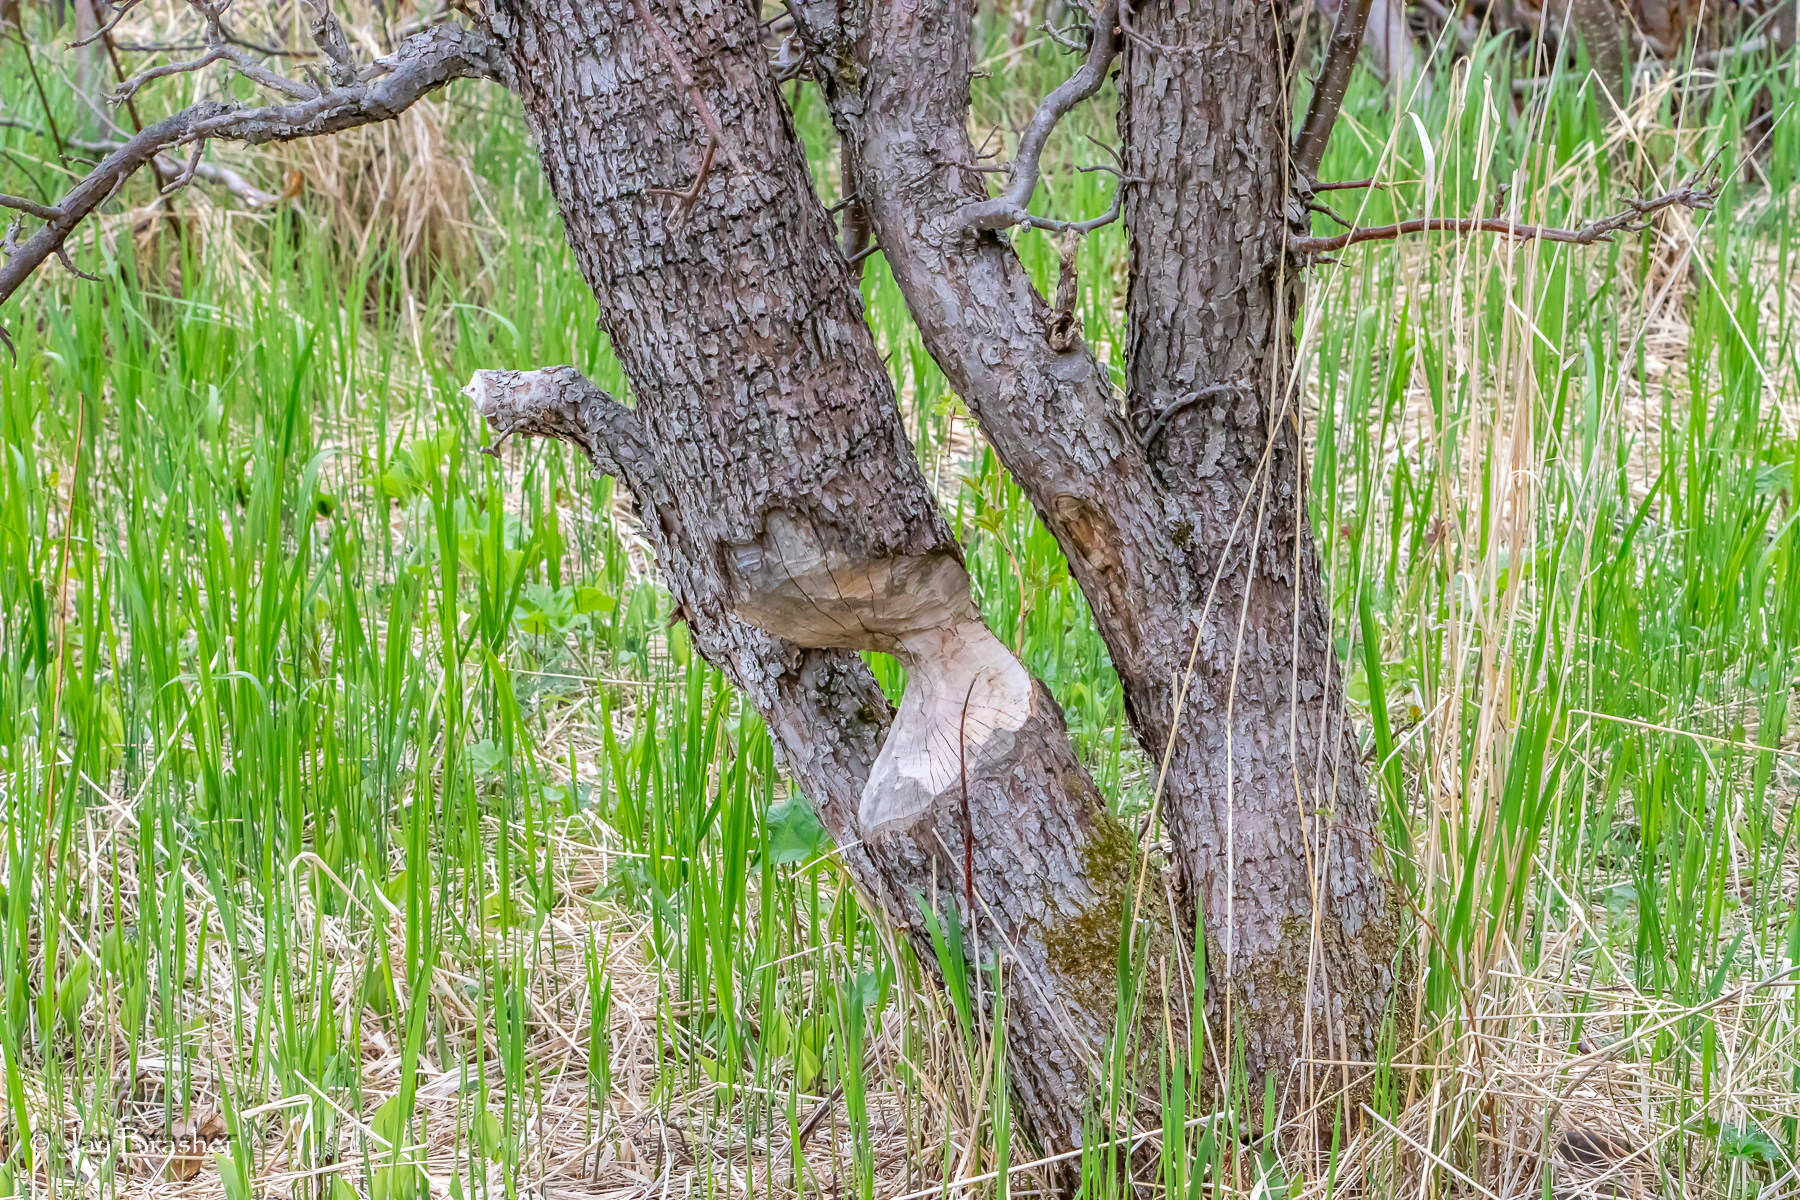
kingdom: Animalia
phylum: Chordata
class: Mammalia
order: Rodentia
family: Castoridae
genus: Castor
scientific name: Castor canadensis
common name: American beaver
